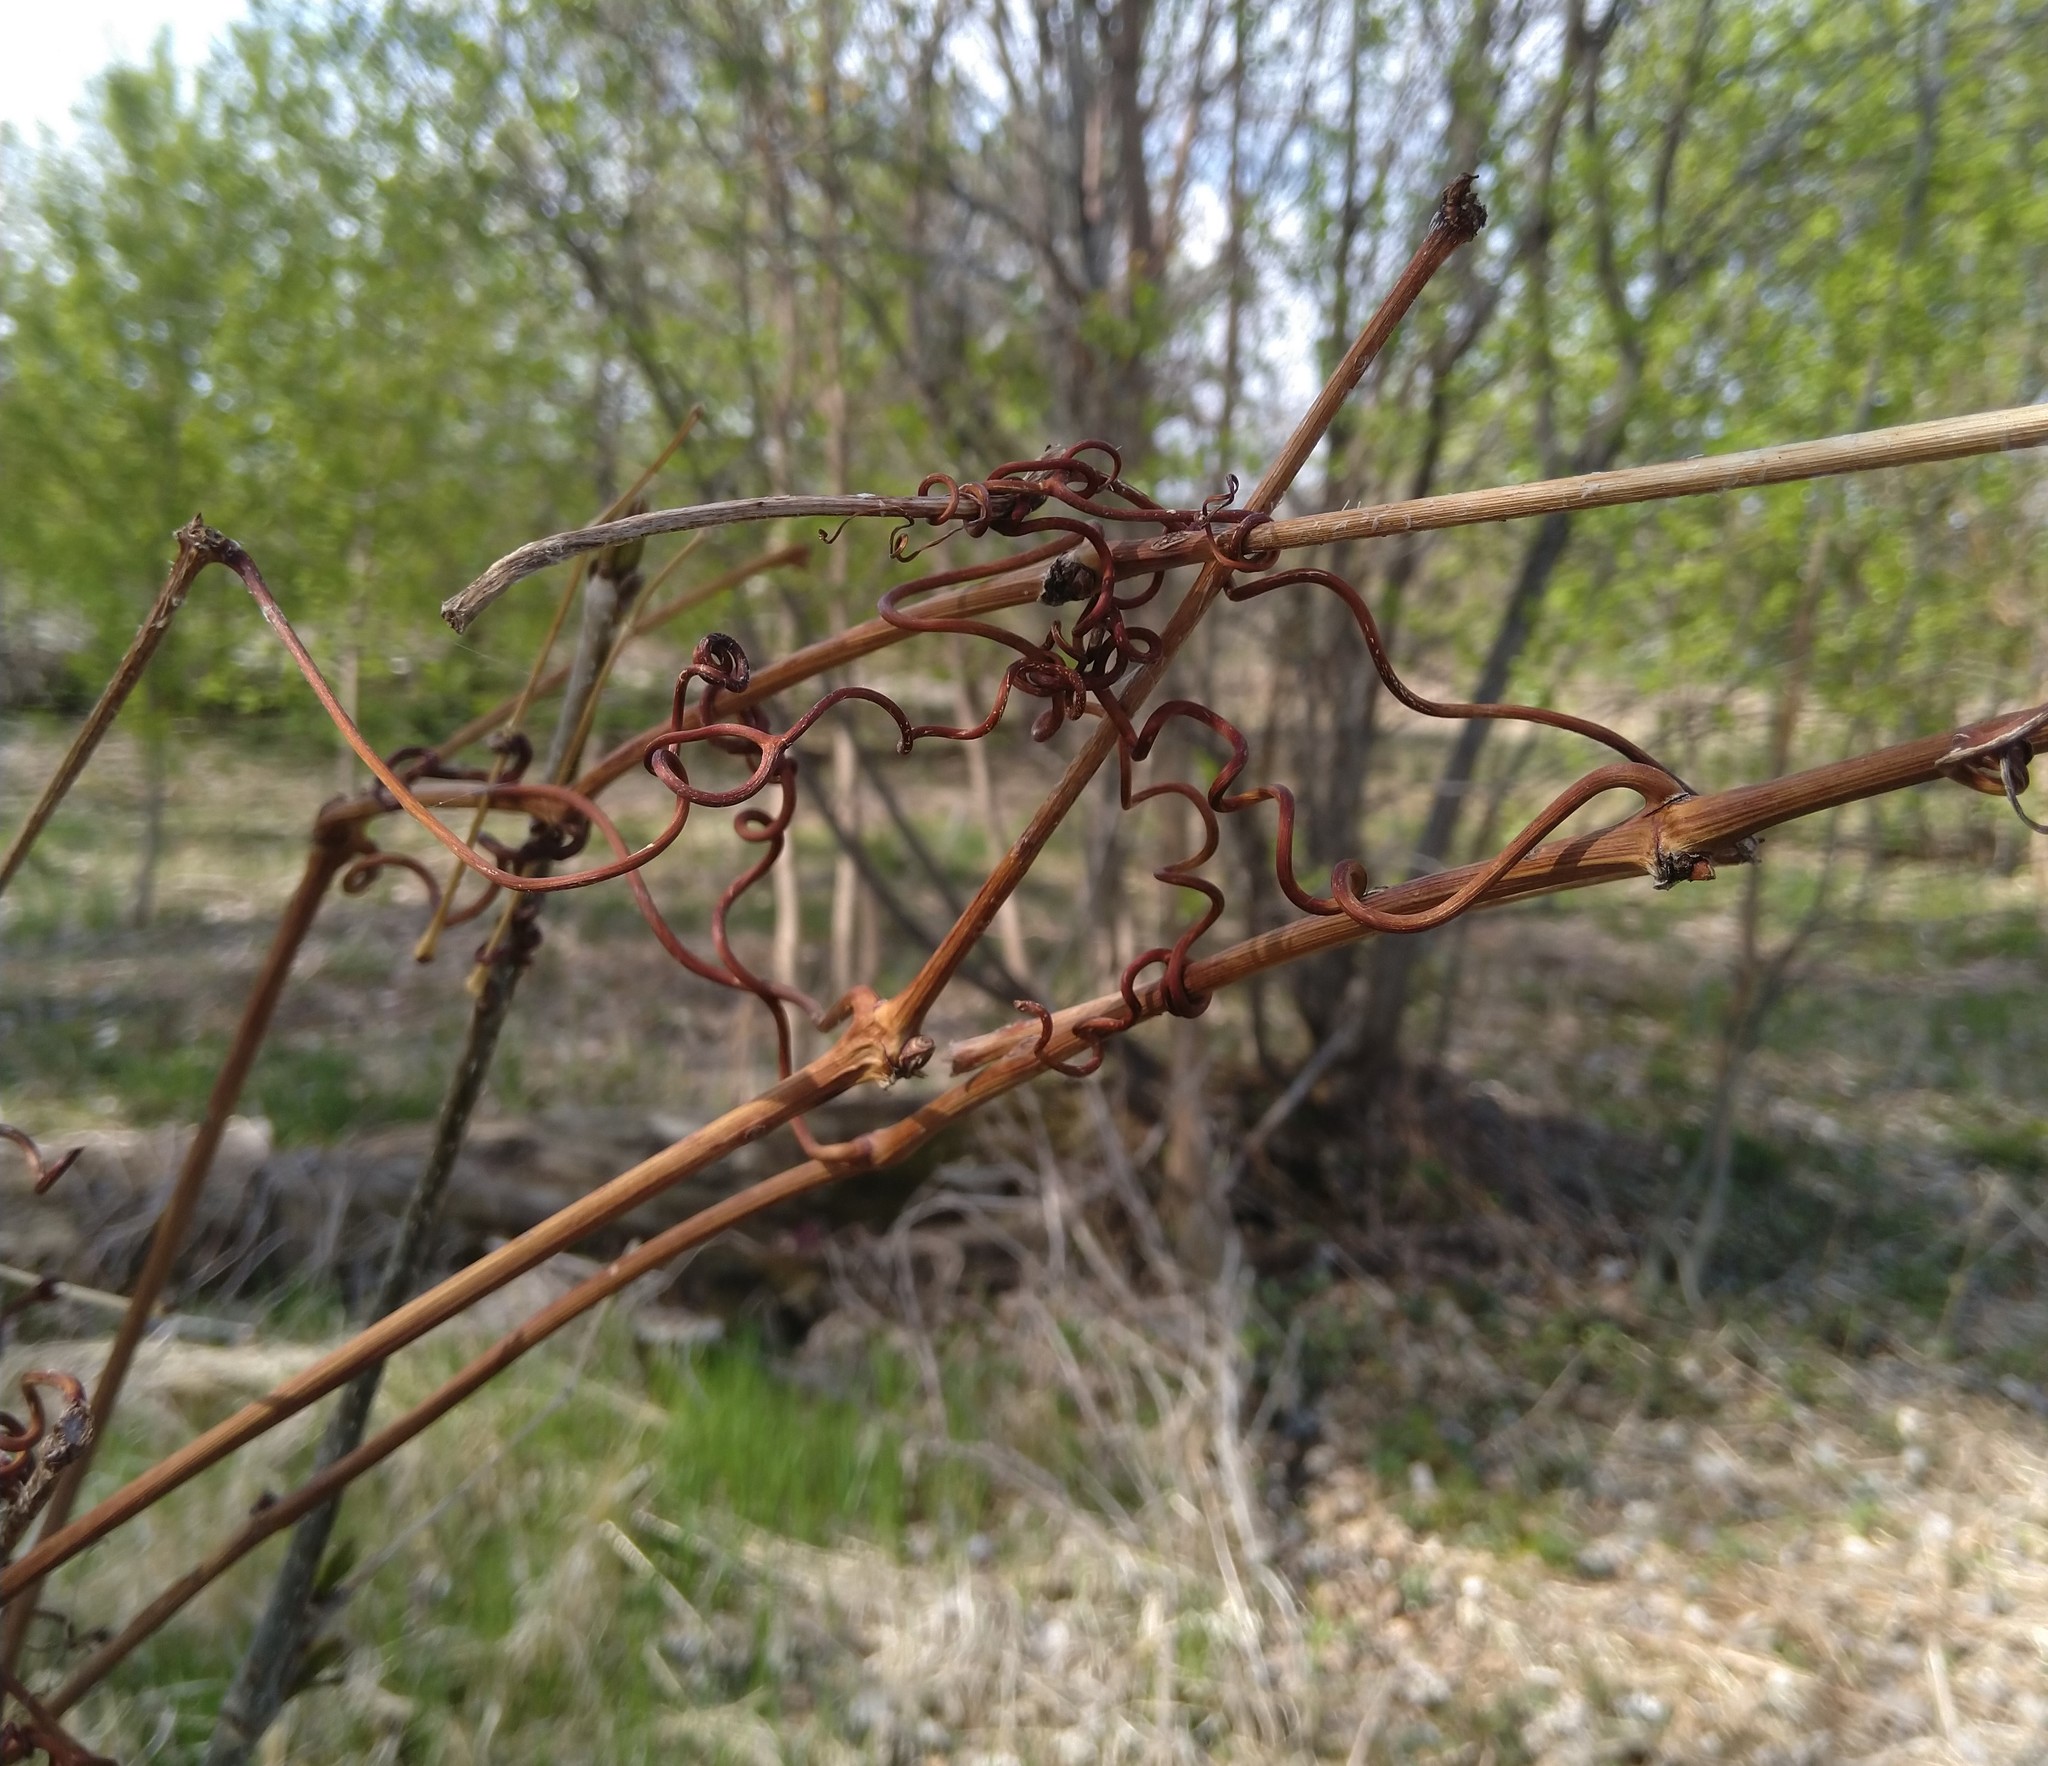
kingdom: Plantae
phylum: Tracheophyta
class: Magnoliopsida
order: Vitales
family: Vitaceae
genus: Vitis
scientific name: Vitis riparia
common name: Frost grape
